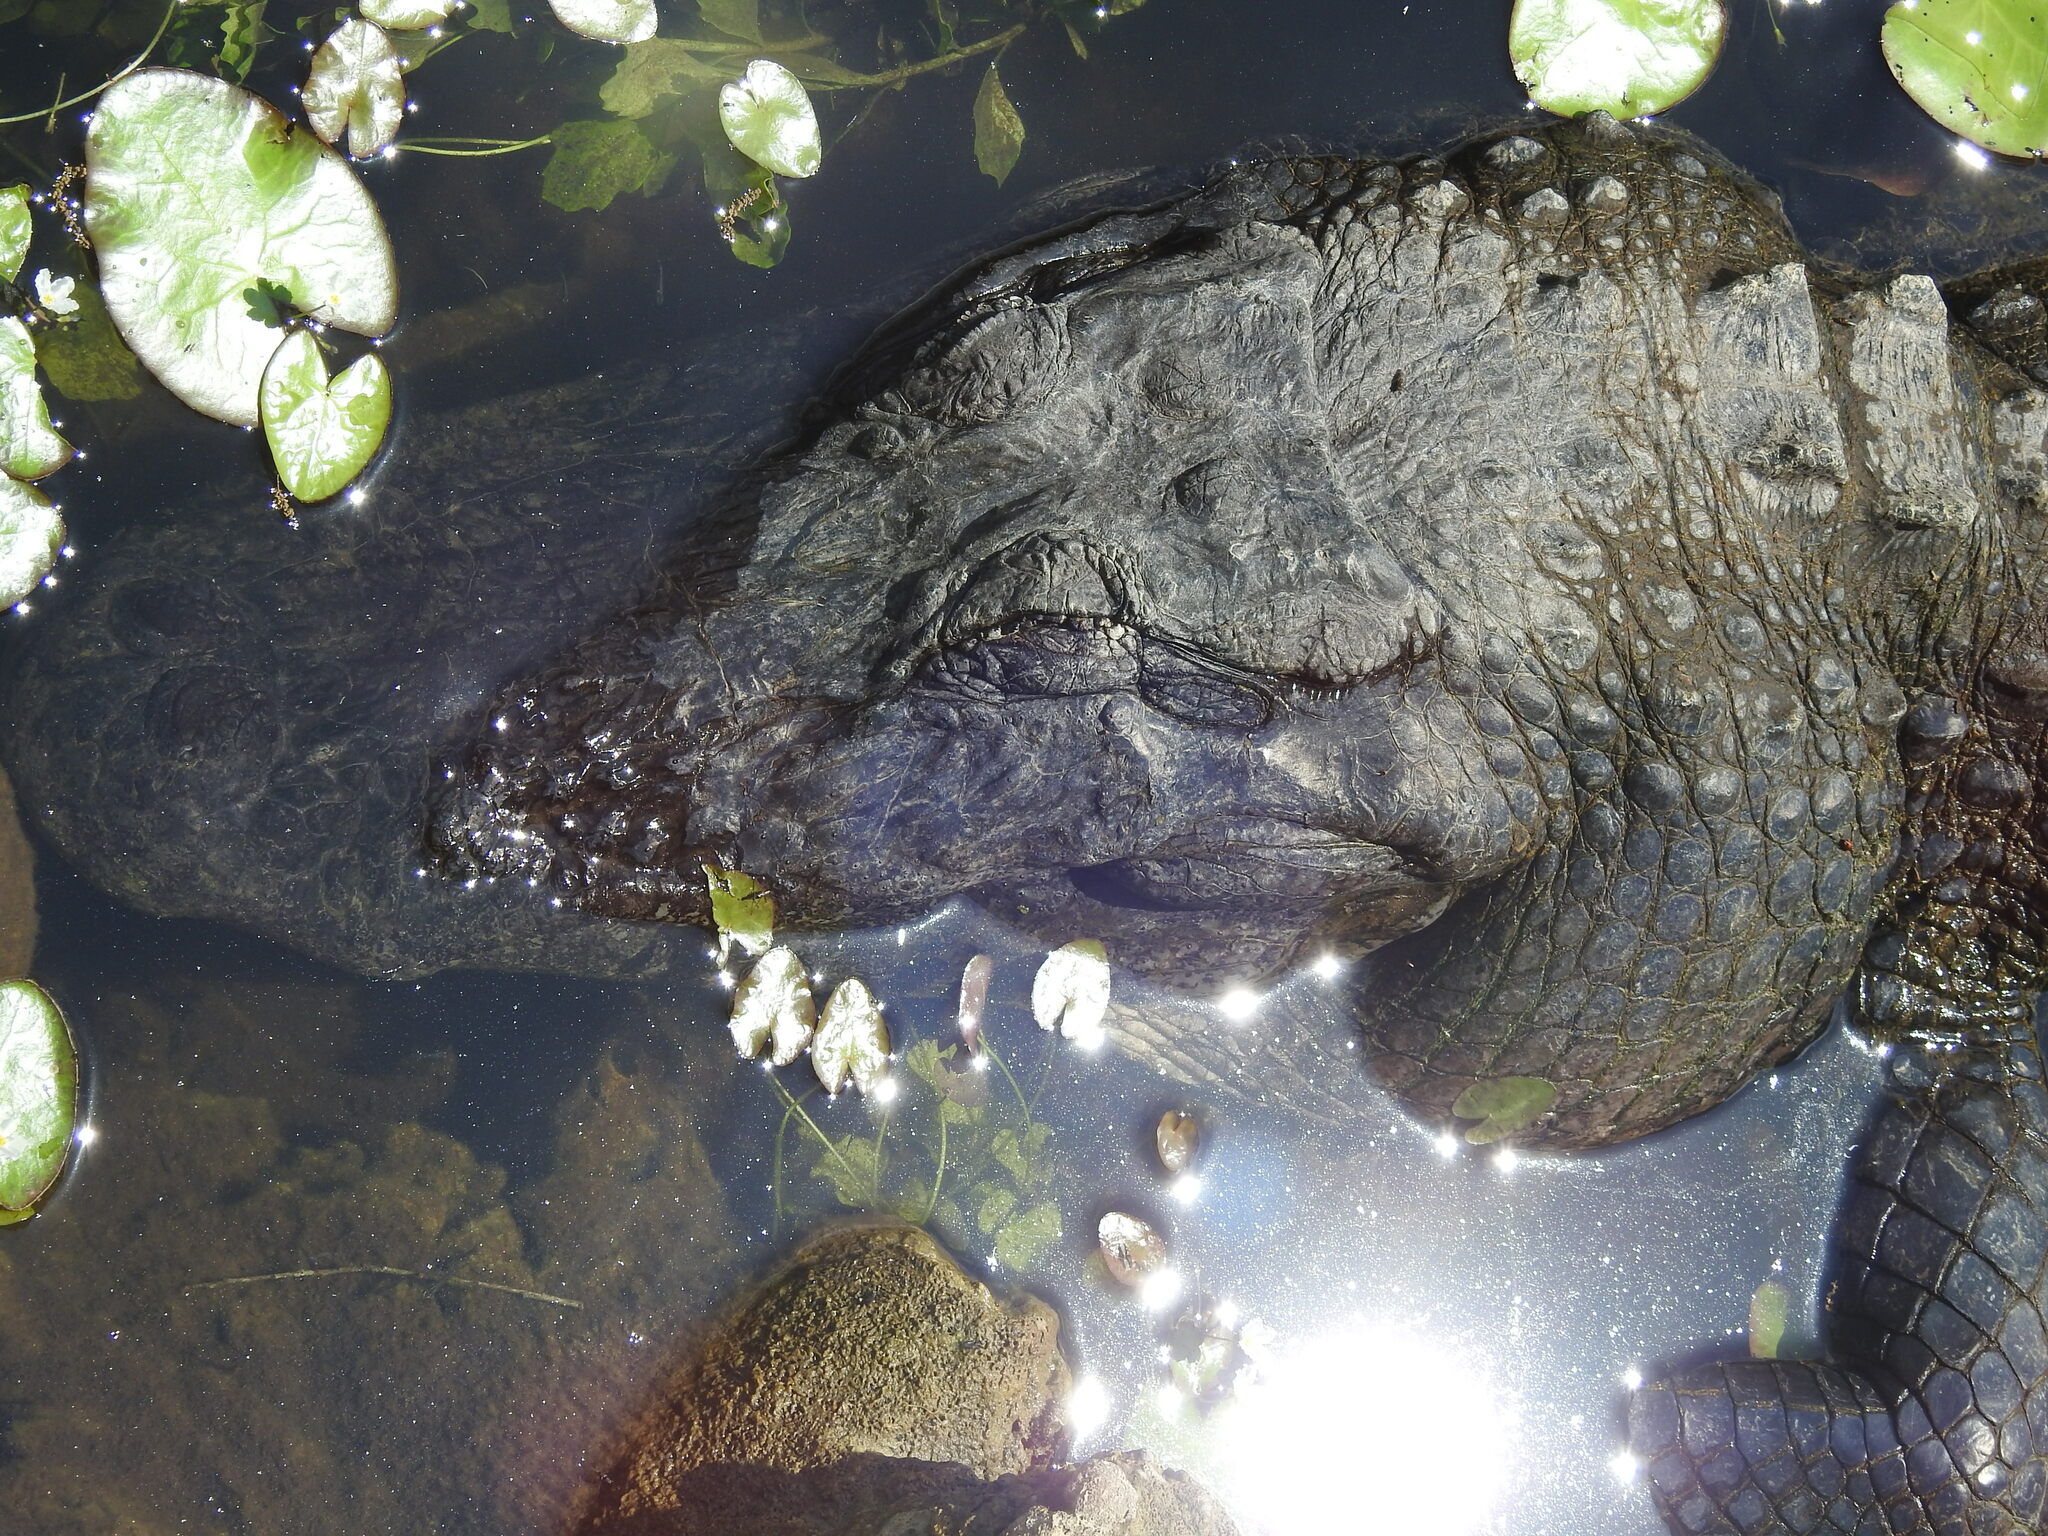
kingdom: Animalia
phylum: Chordata
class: Crocodylia
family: Alligatoridae
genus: Alligator
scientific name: Alligator mississippiensis
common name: American alligator
